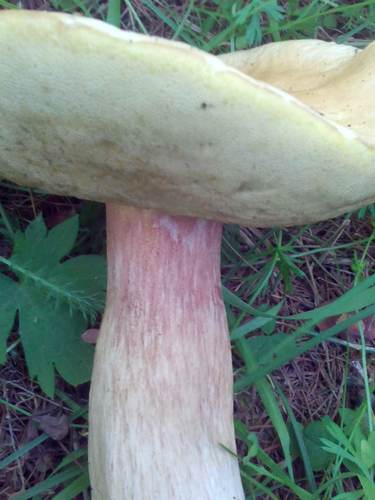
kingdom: Fungi
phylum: Basidiomycota
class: Agaricomycetes
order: Boletales
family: Boletaceae
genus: Boletus
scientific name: Boletus edulis
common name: Cep
